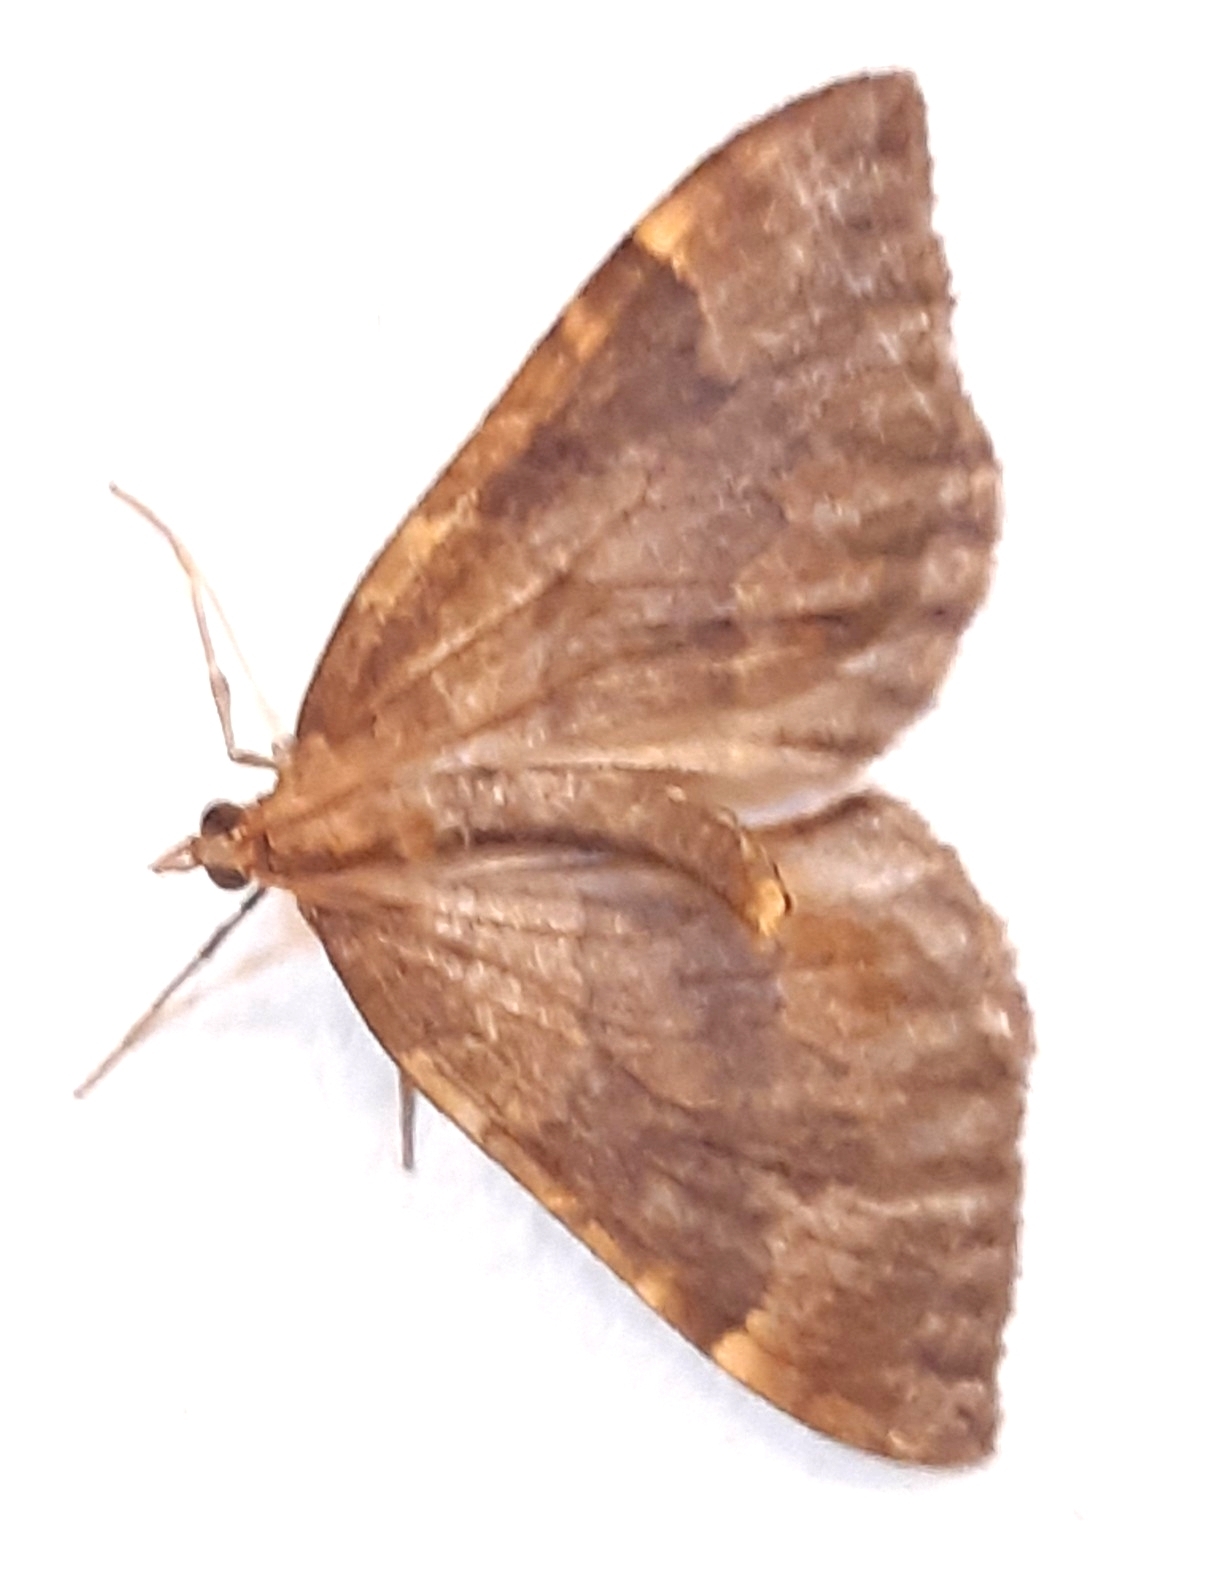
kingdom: Animalia
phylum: Arthropoda
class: Insecta
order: Lepidoptera
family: Geometridae
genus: Eulithis
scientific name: Eulithis populata
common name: Northern spinach
